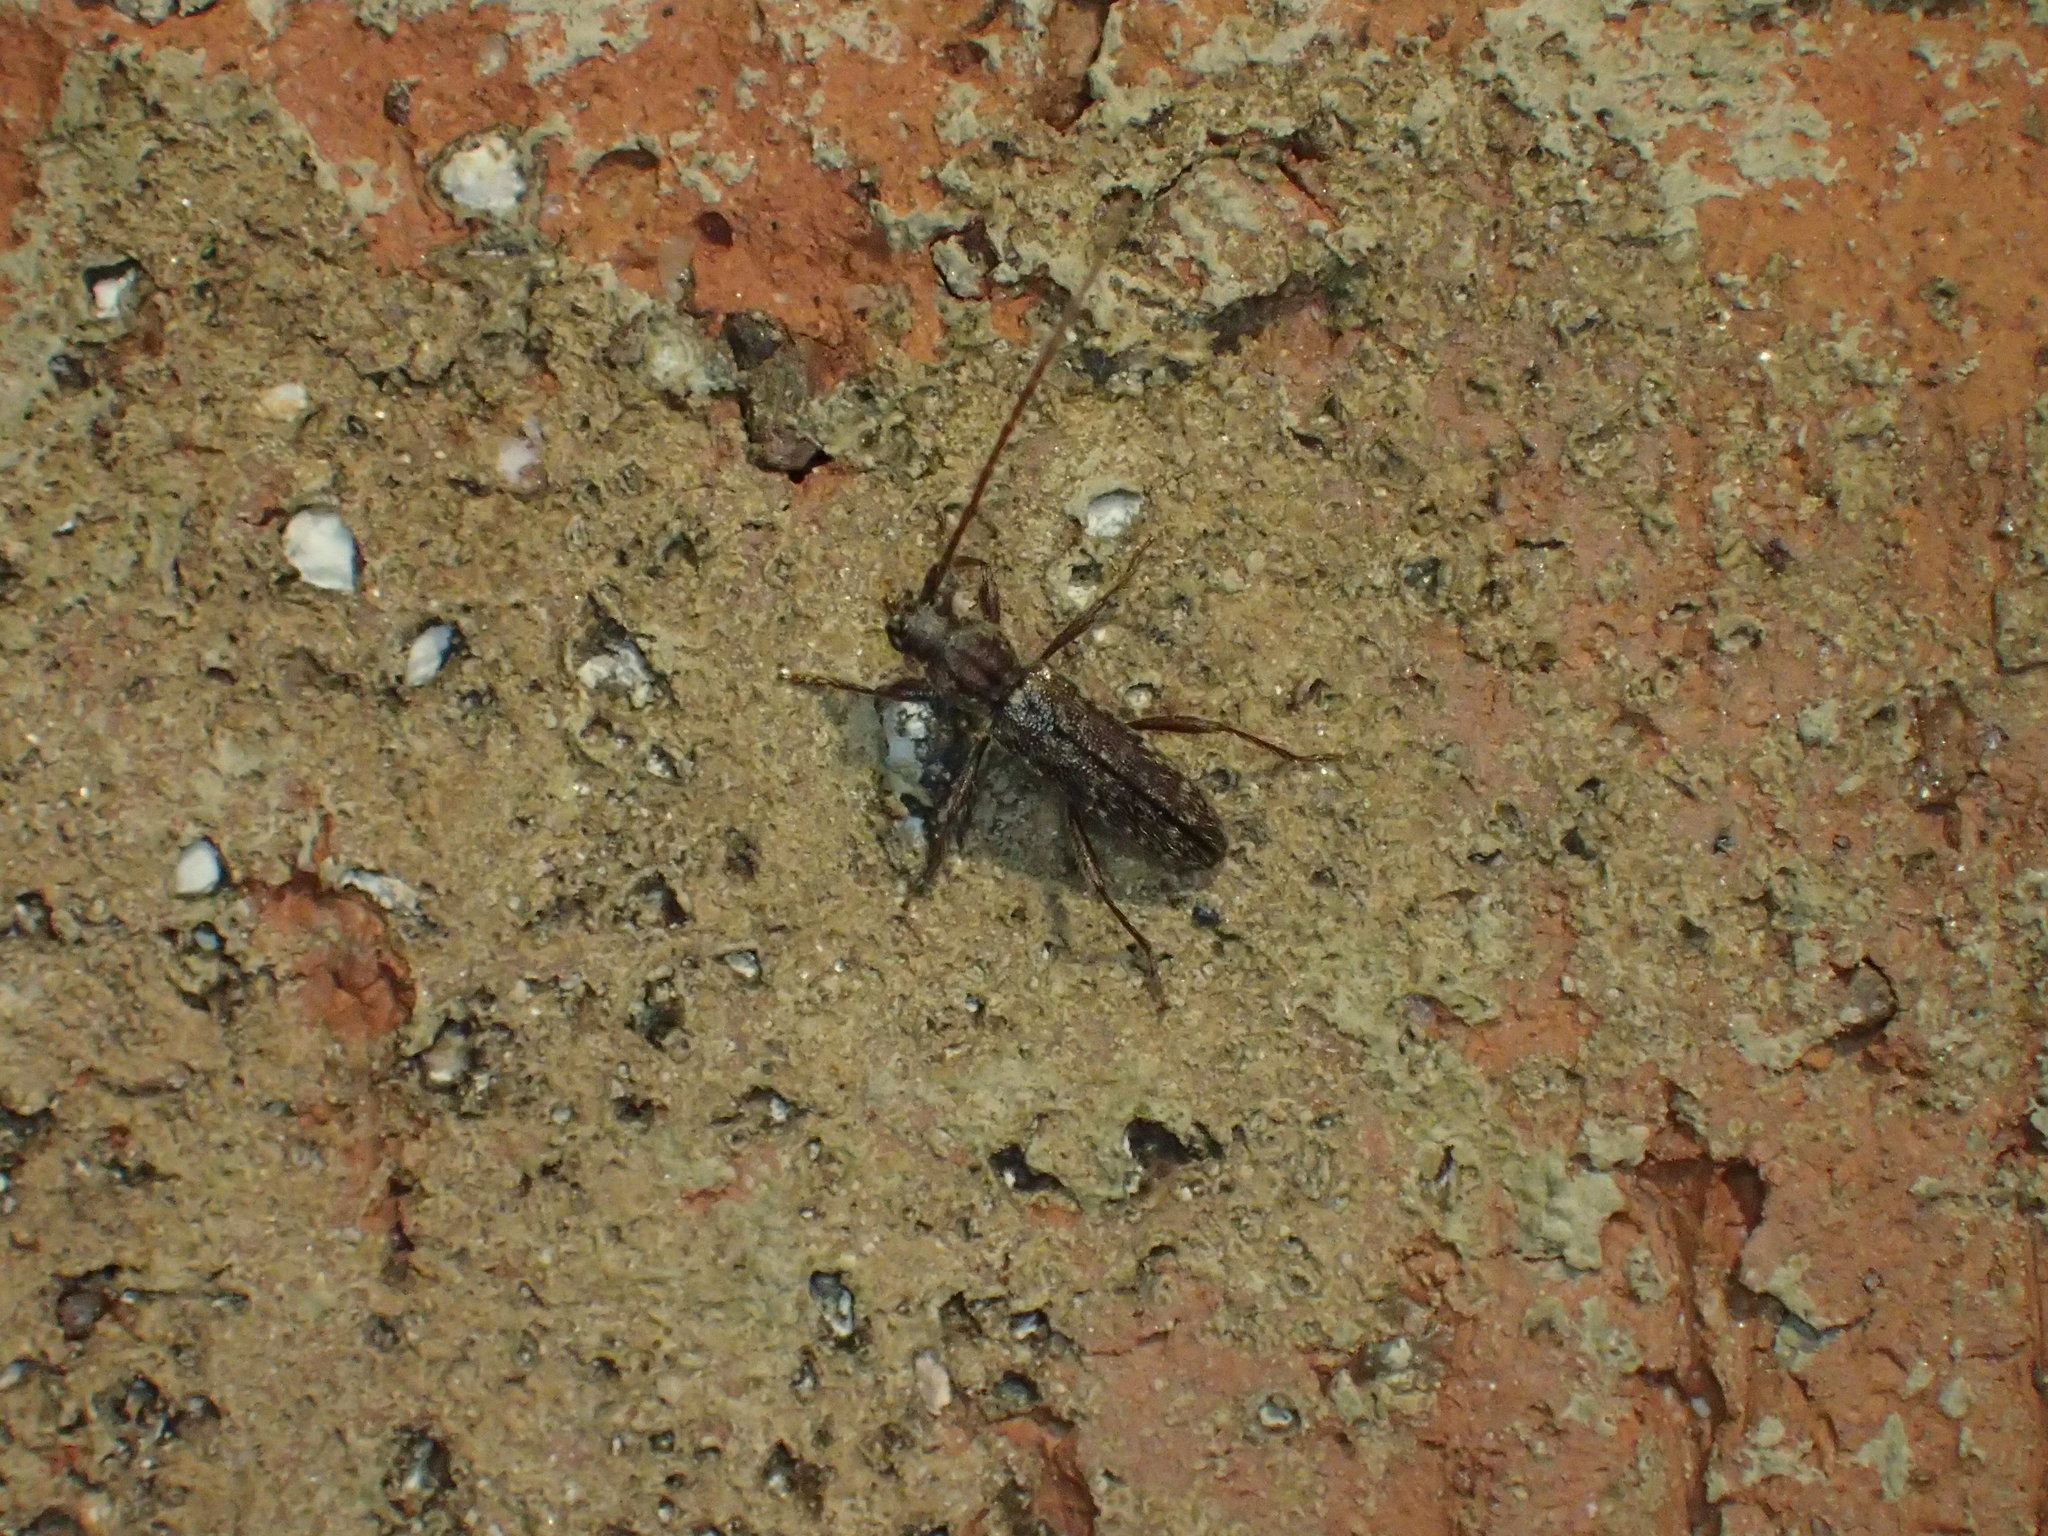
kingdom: Animalia
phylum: Arthropoda
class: Insecta
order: Coleoptera
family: Cerambycidae
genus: Anelaphus
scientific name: Anelaphus pumilus
